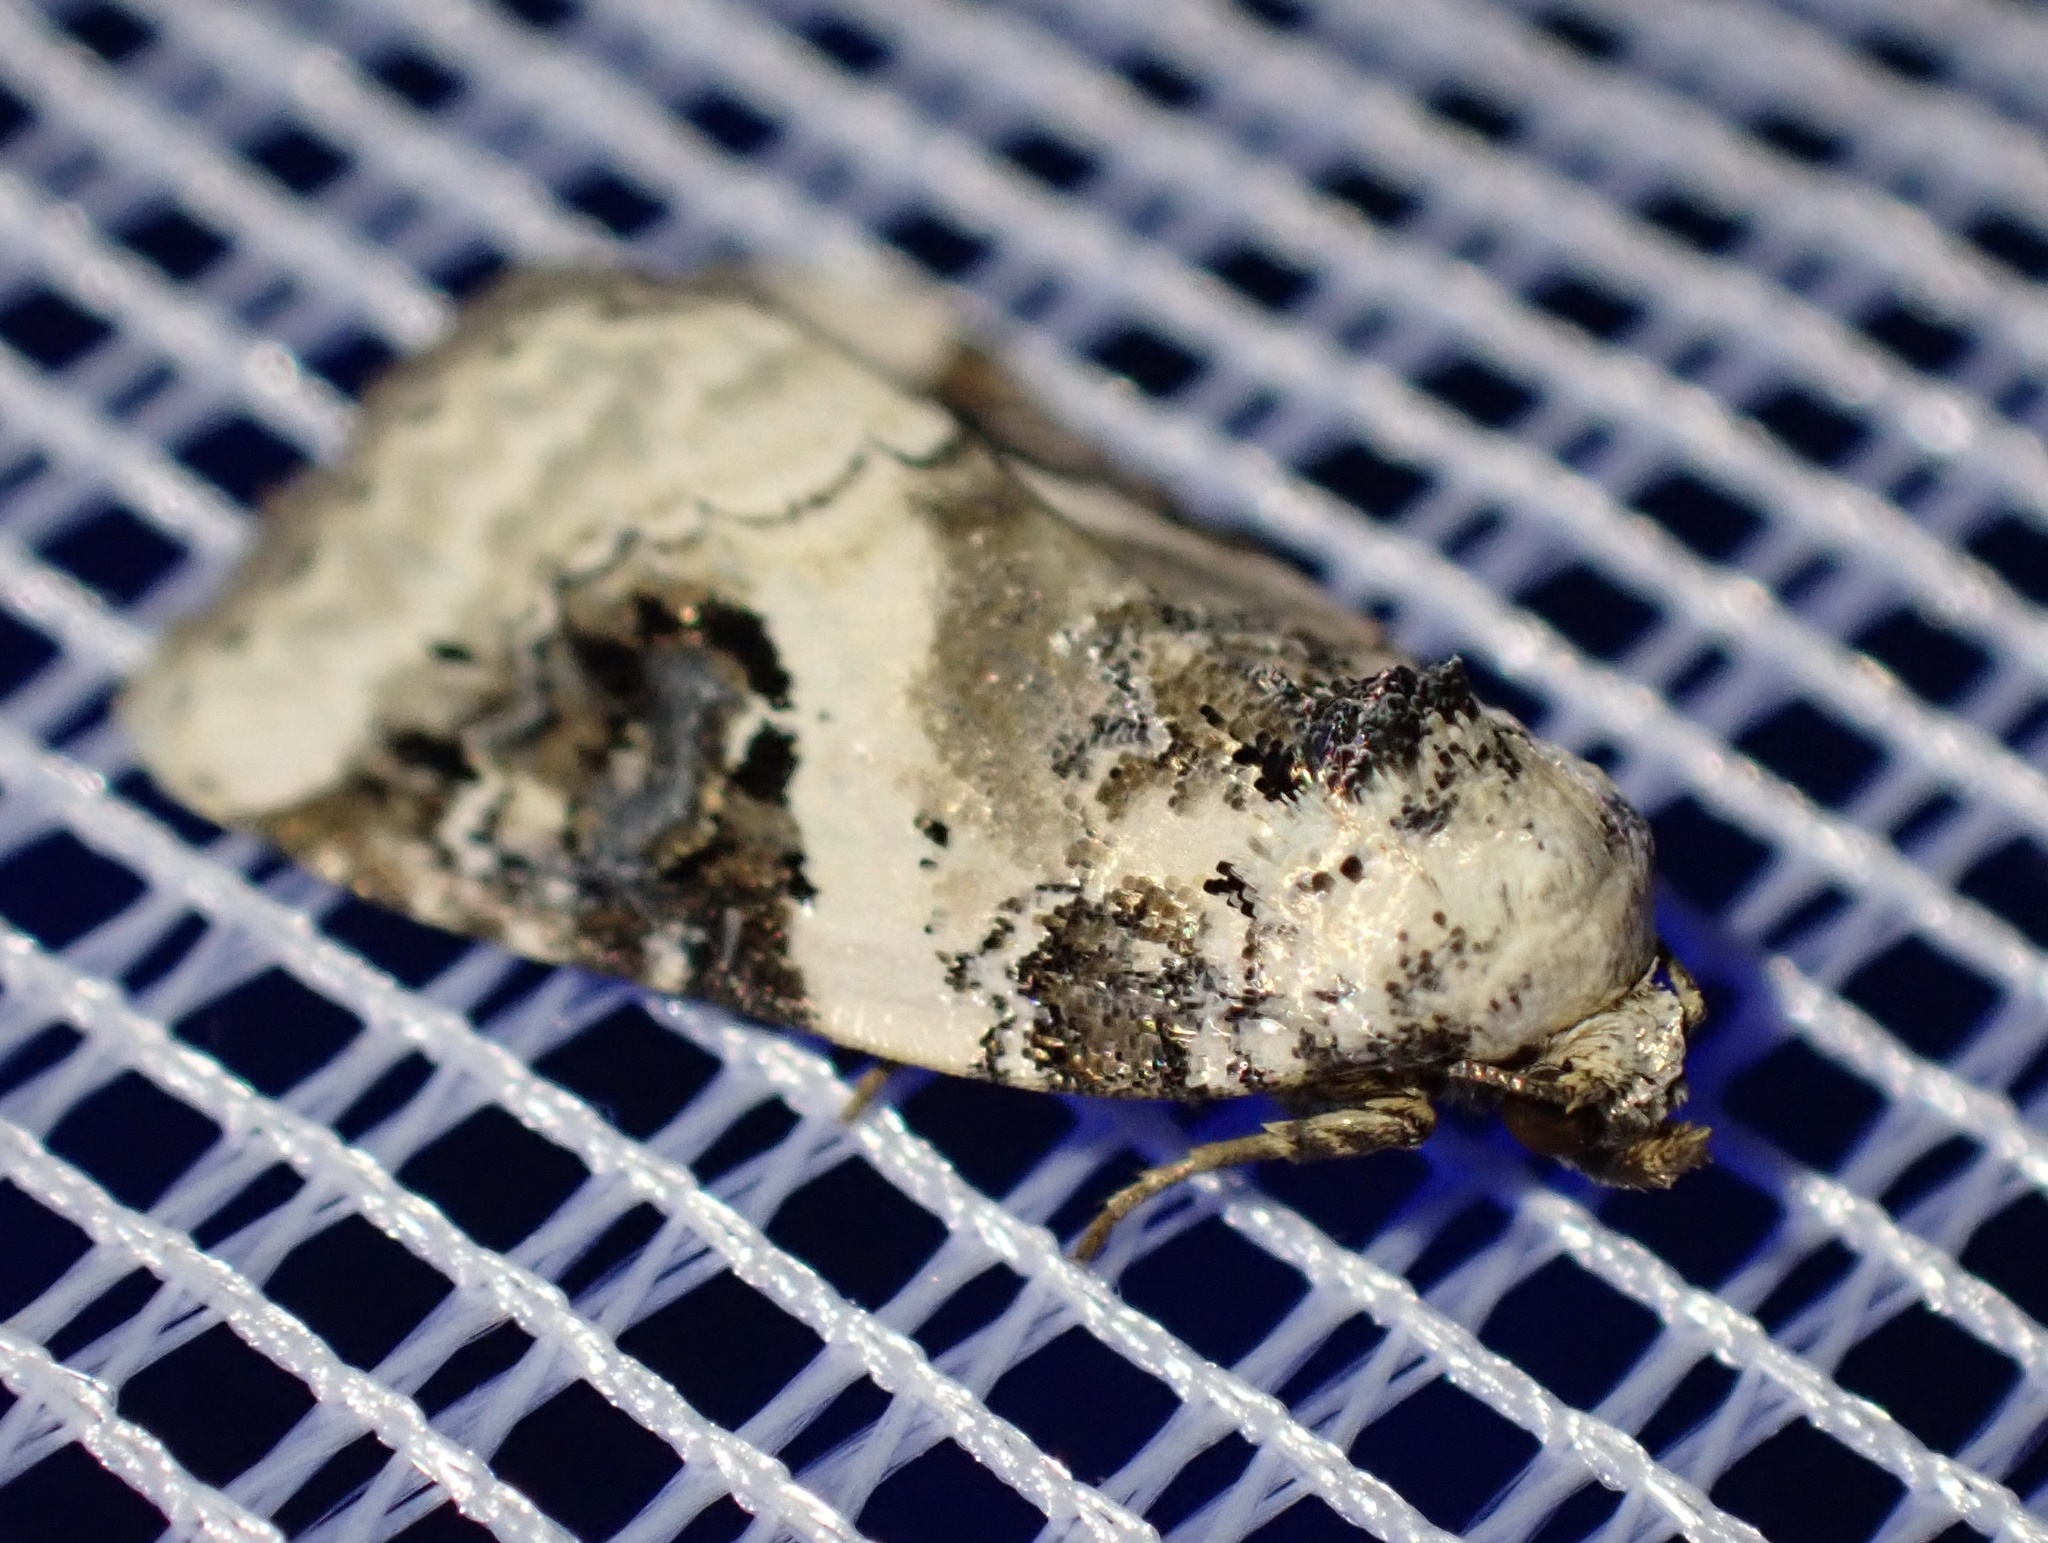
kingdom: Animalia
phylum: Arthropoda
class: Insecta
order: Lepidoptera
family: Noctuidae
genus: Pseudeustrotia
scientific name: Pseudeustrotia candidula
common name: Shining marbled
